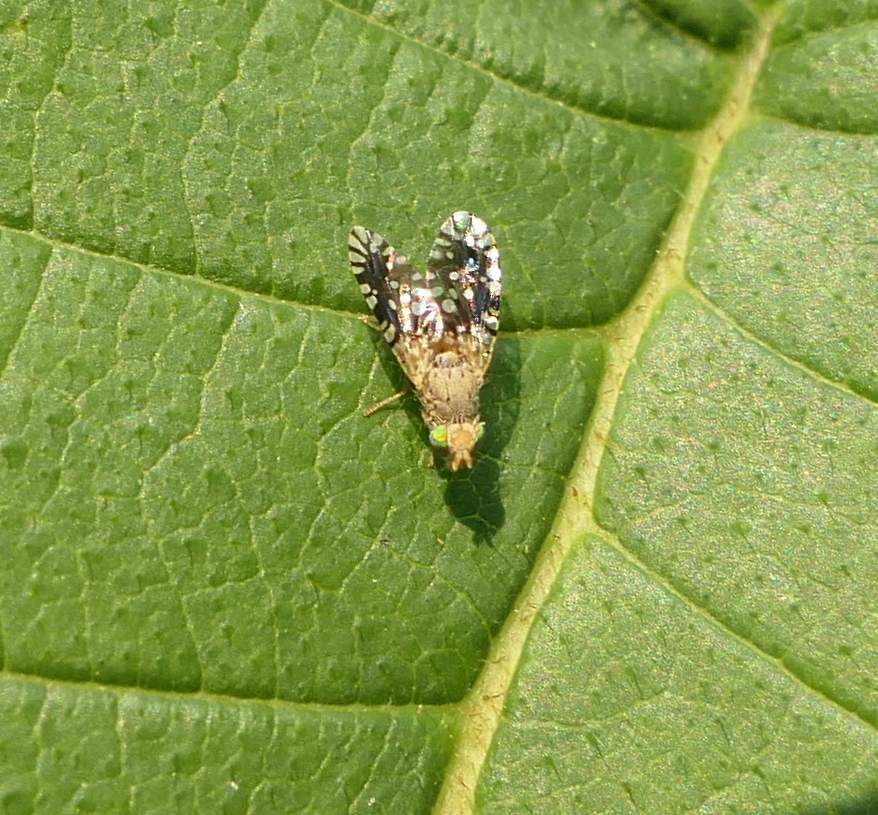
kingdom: Animalia
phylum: Arthropoda
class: Insecta
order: Diptera
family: Tephritidae
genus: Euaresta
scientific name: Euaresta bella
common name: Common ragweed fruit fly
